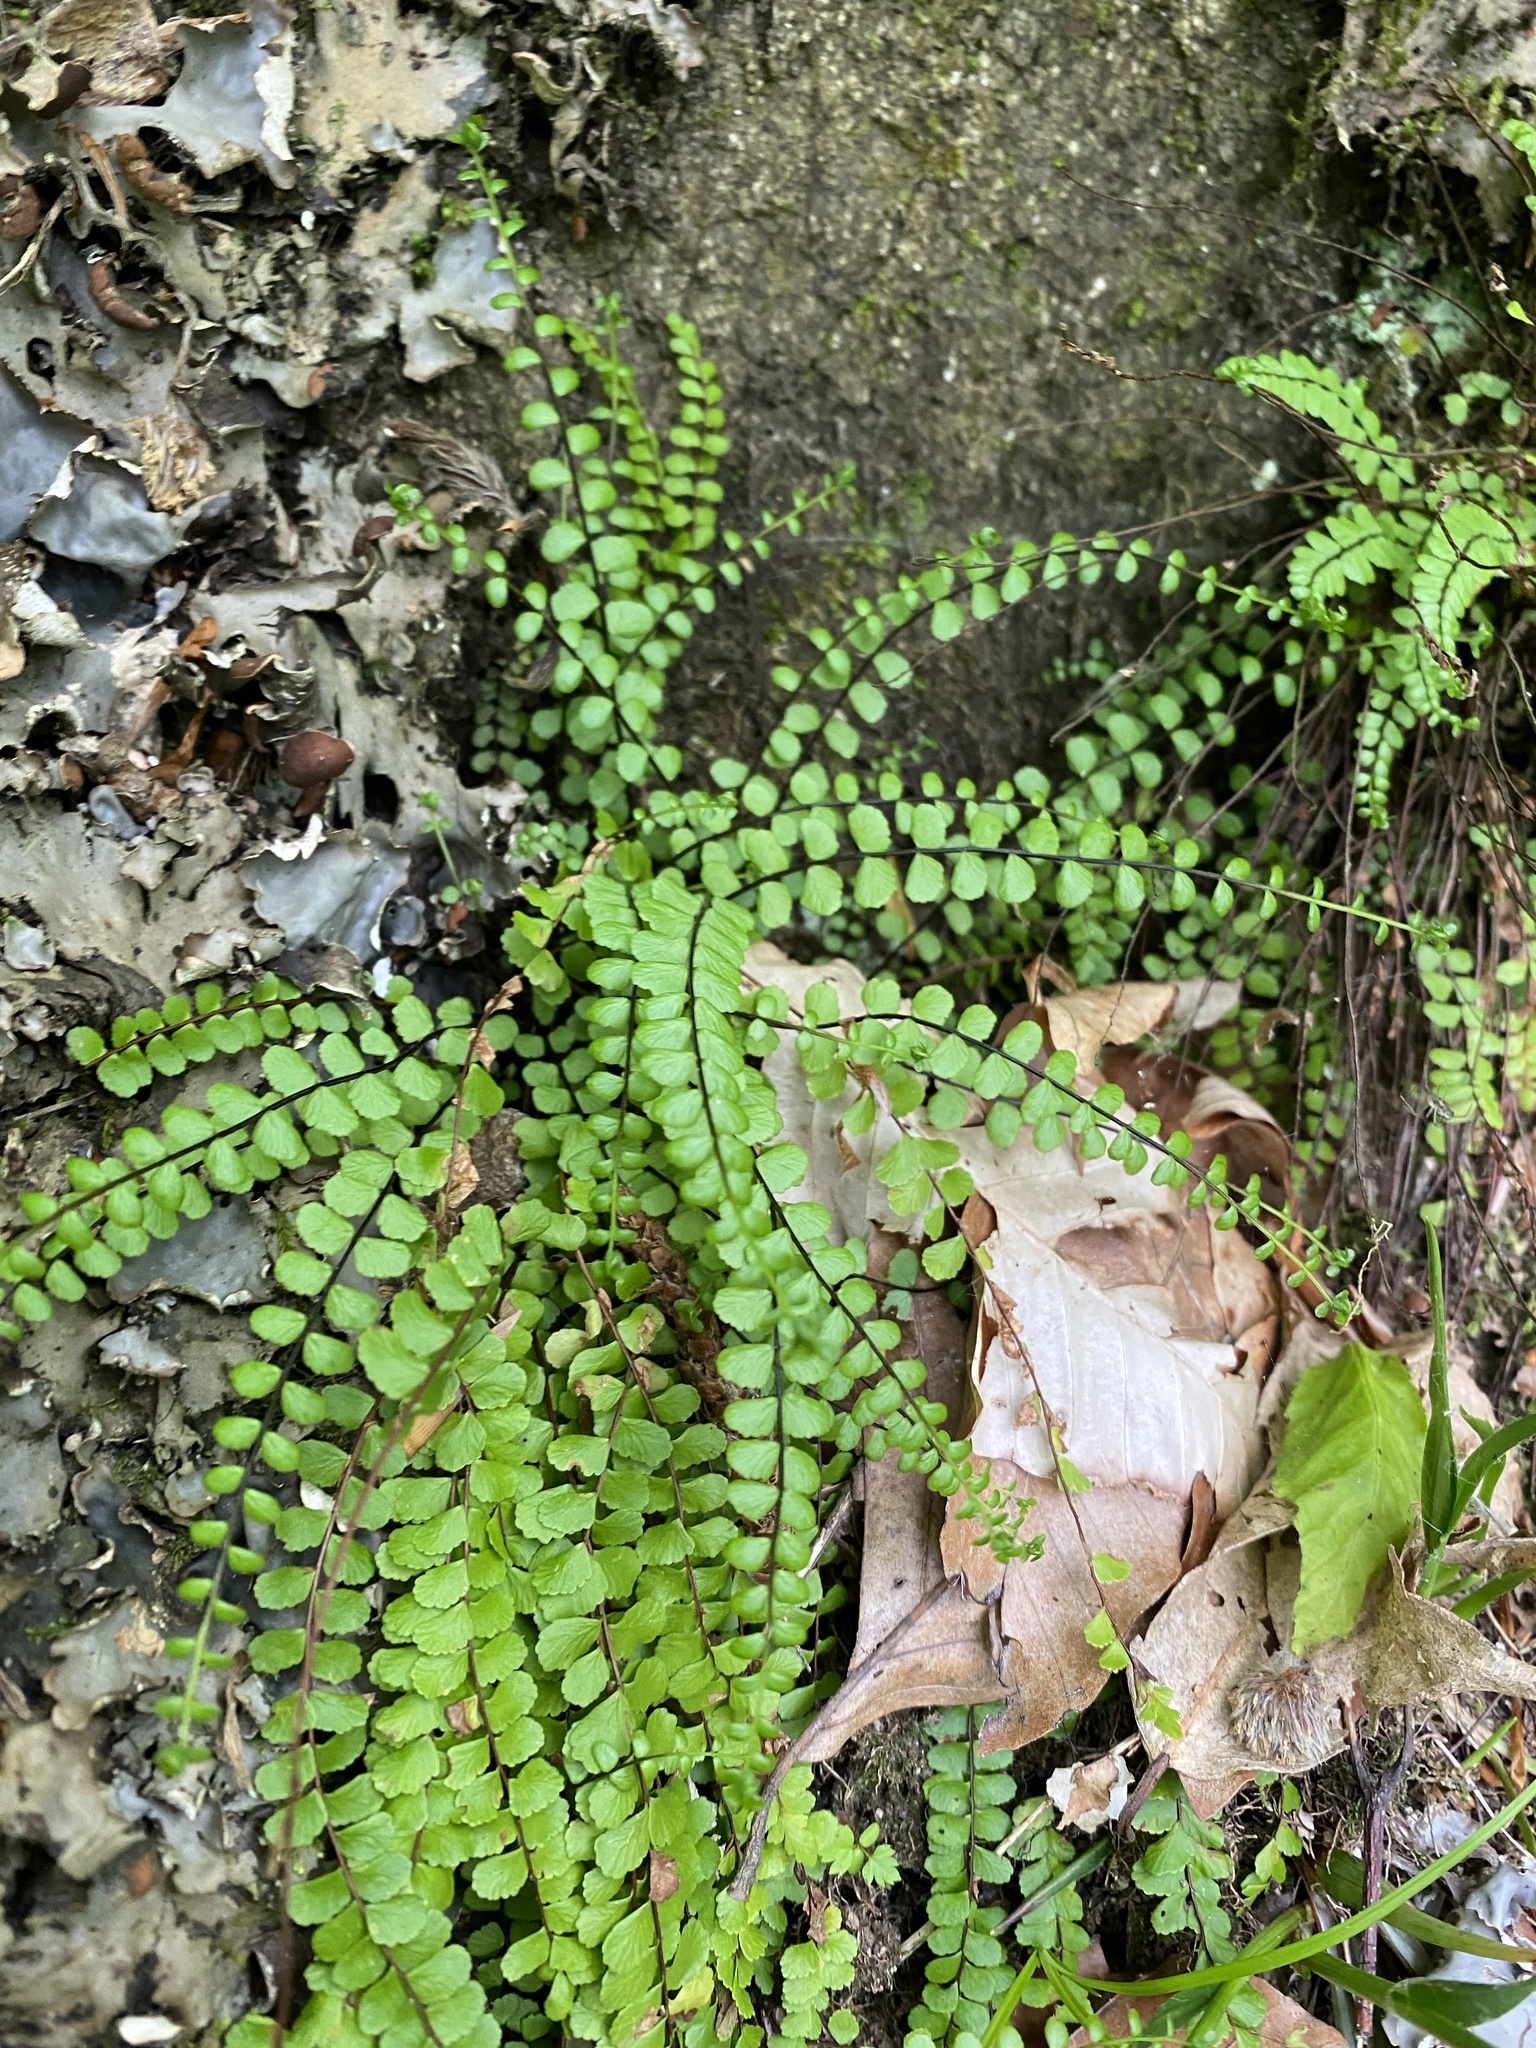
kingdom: Plantae
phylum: Tracheophyta
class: Polypodiopsida
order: Polypodiales
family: Aspleniaceae
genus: Asplenium
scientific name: Asplenium trichomanes
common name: Maidenhair spleenwort
